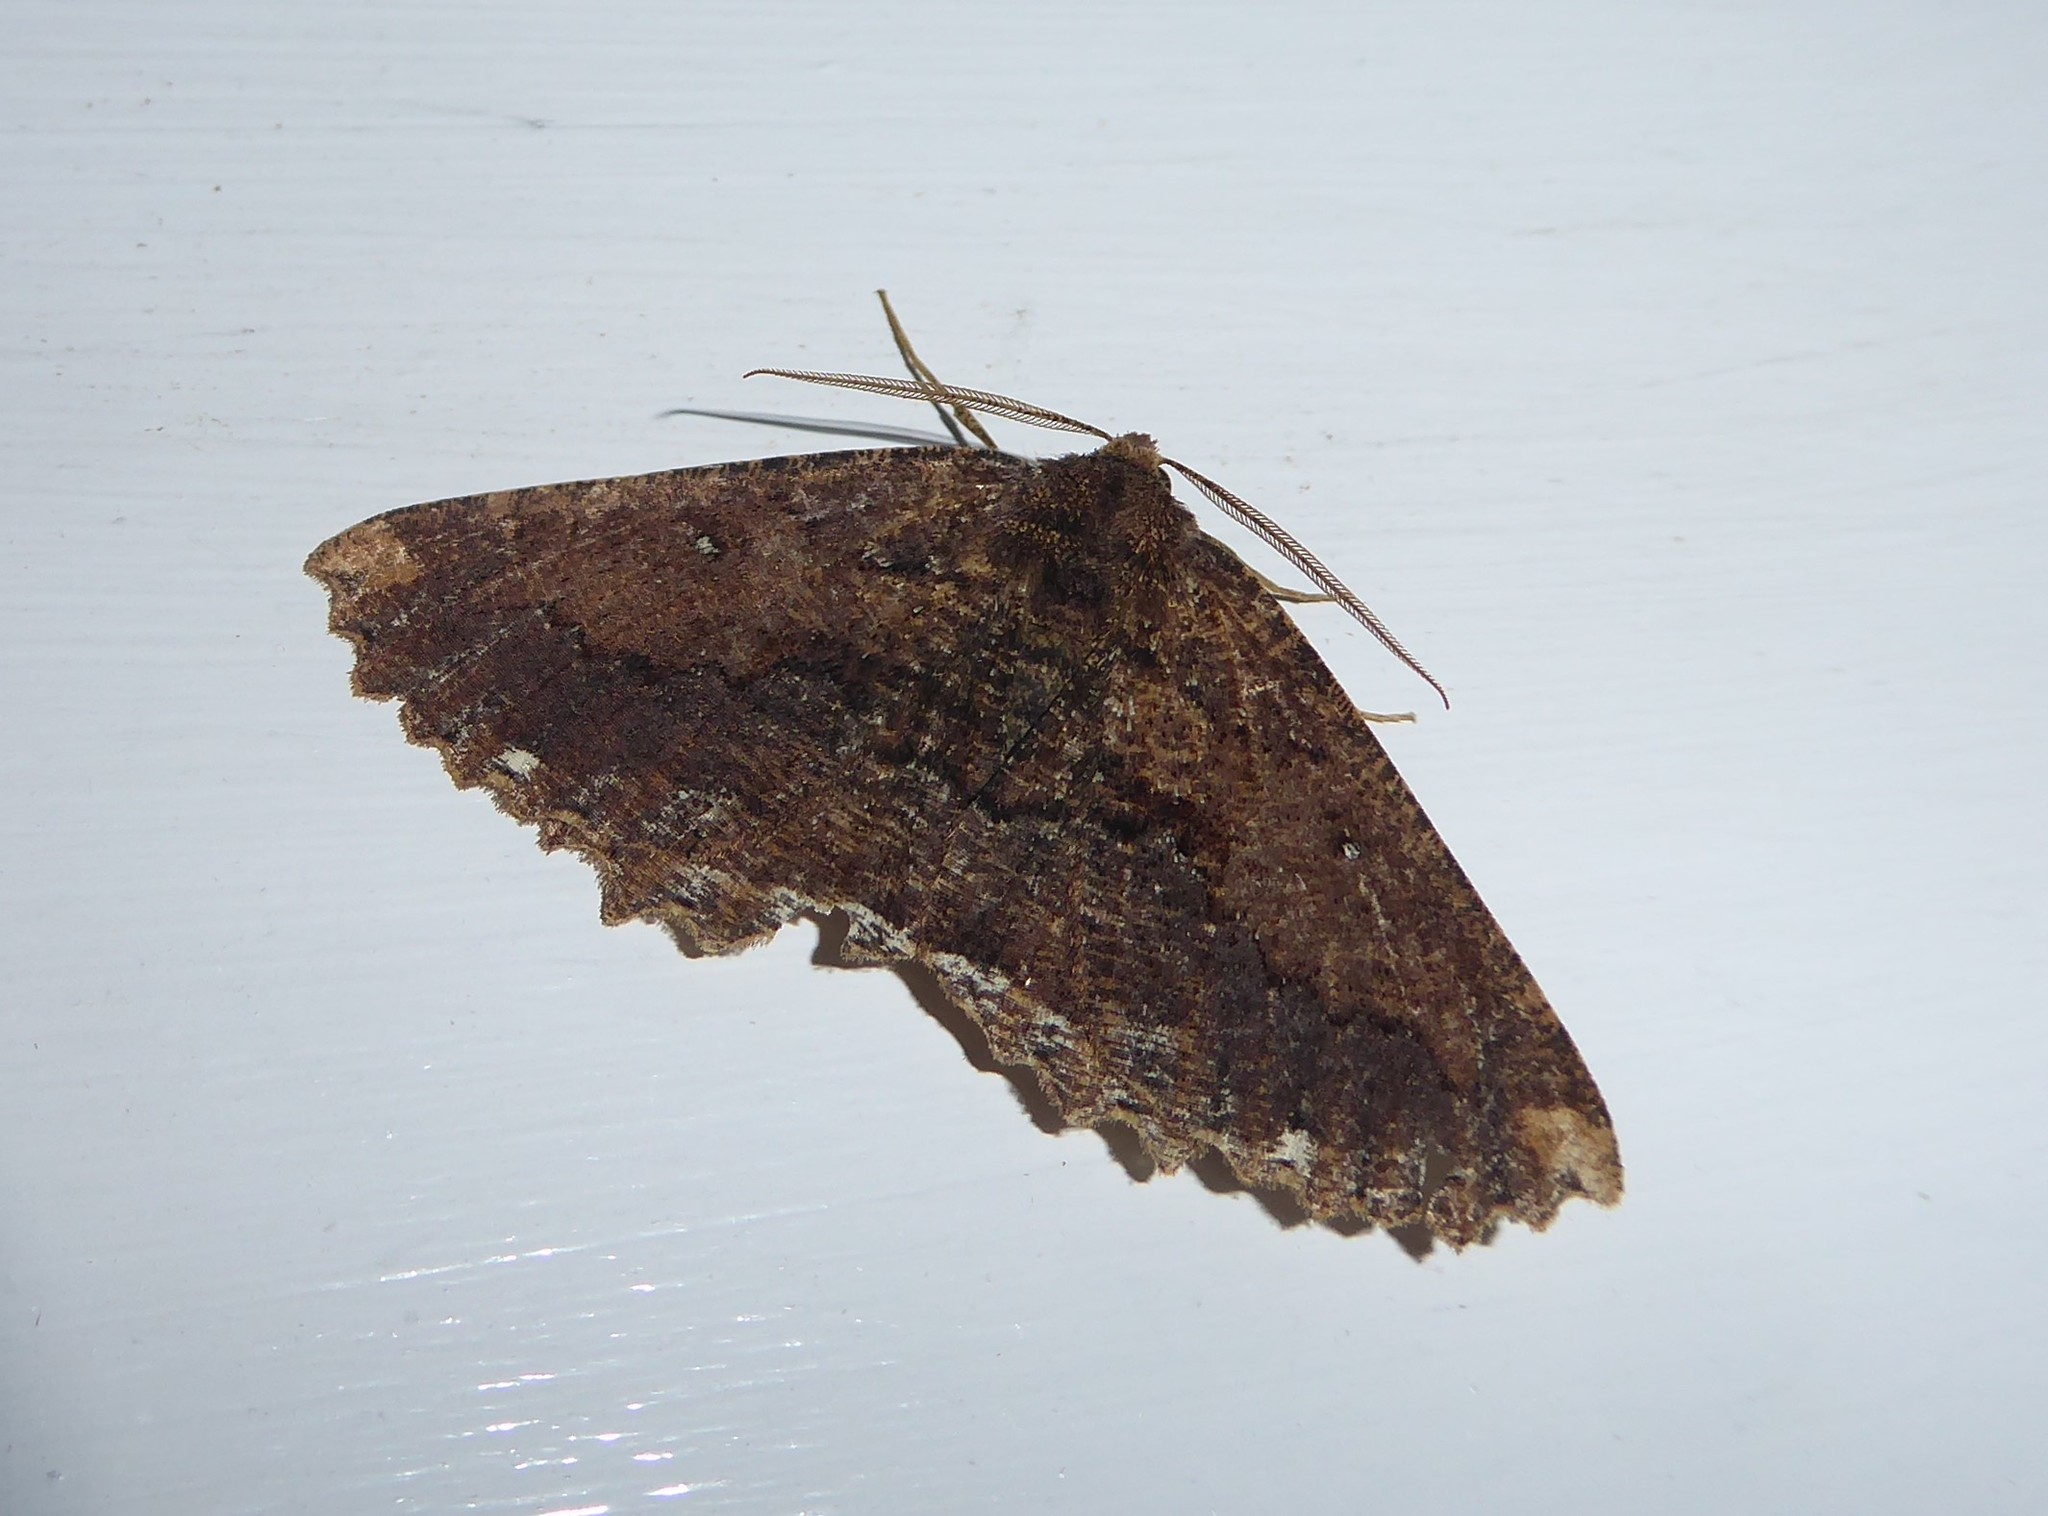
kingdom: Animalia
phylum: Arthropoda
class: Insecta
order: Lepidoptera
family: Geometridae
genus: Gellonia
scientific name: Gellonia dejectaria
